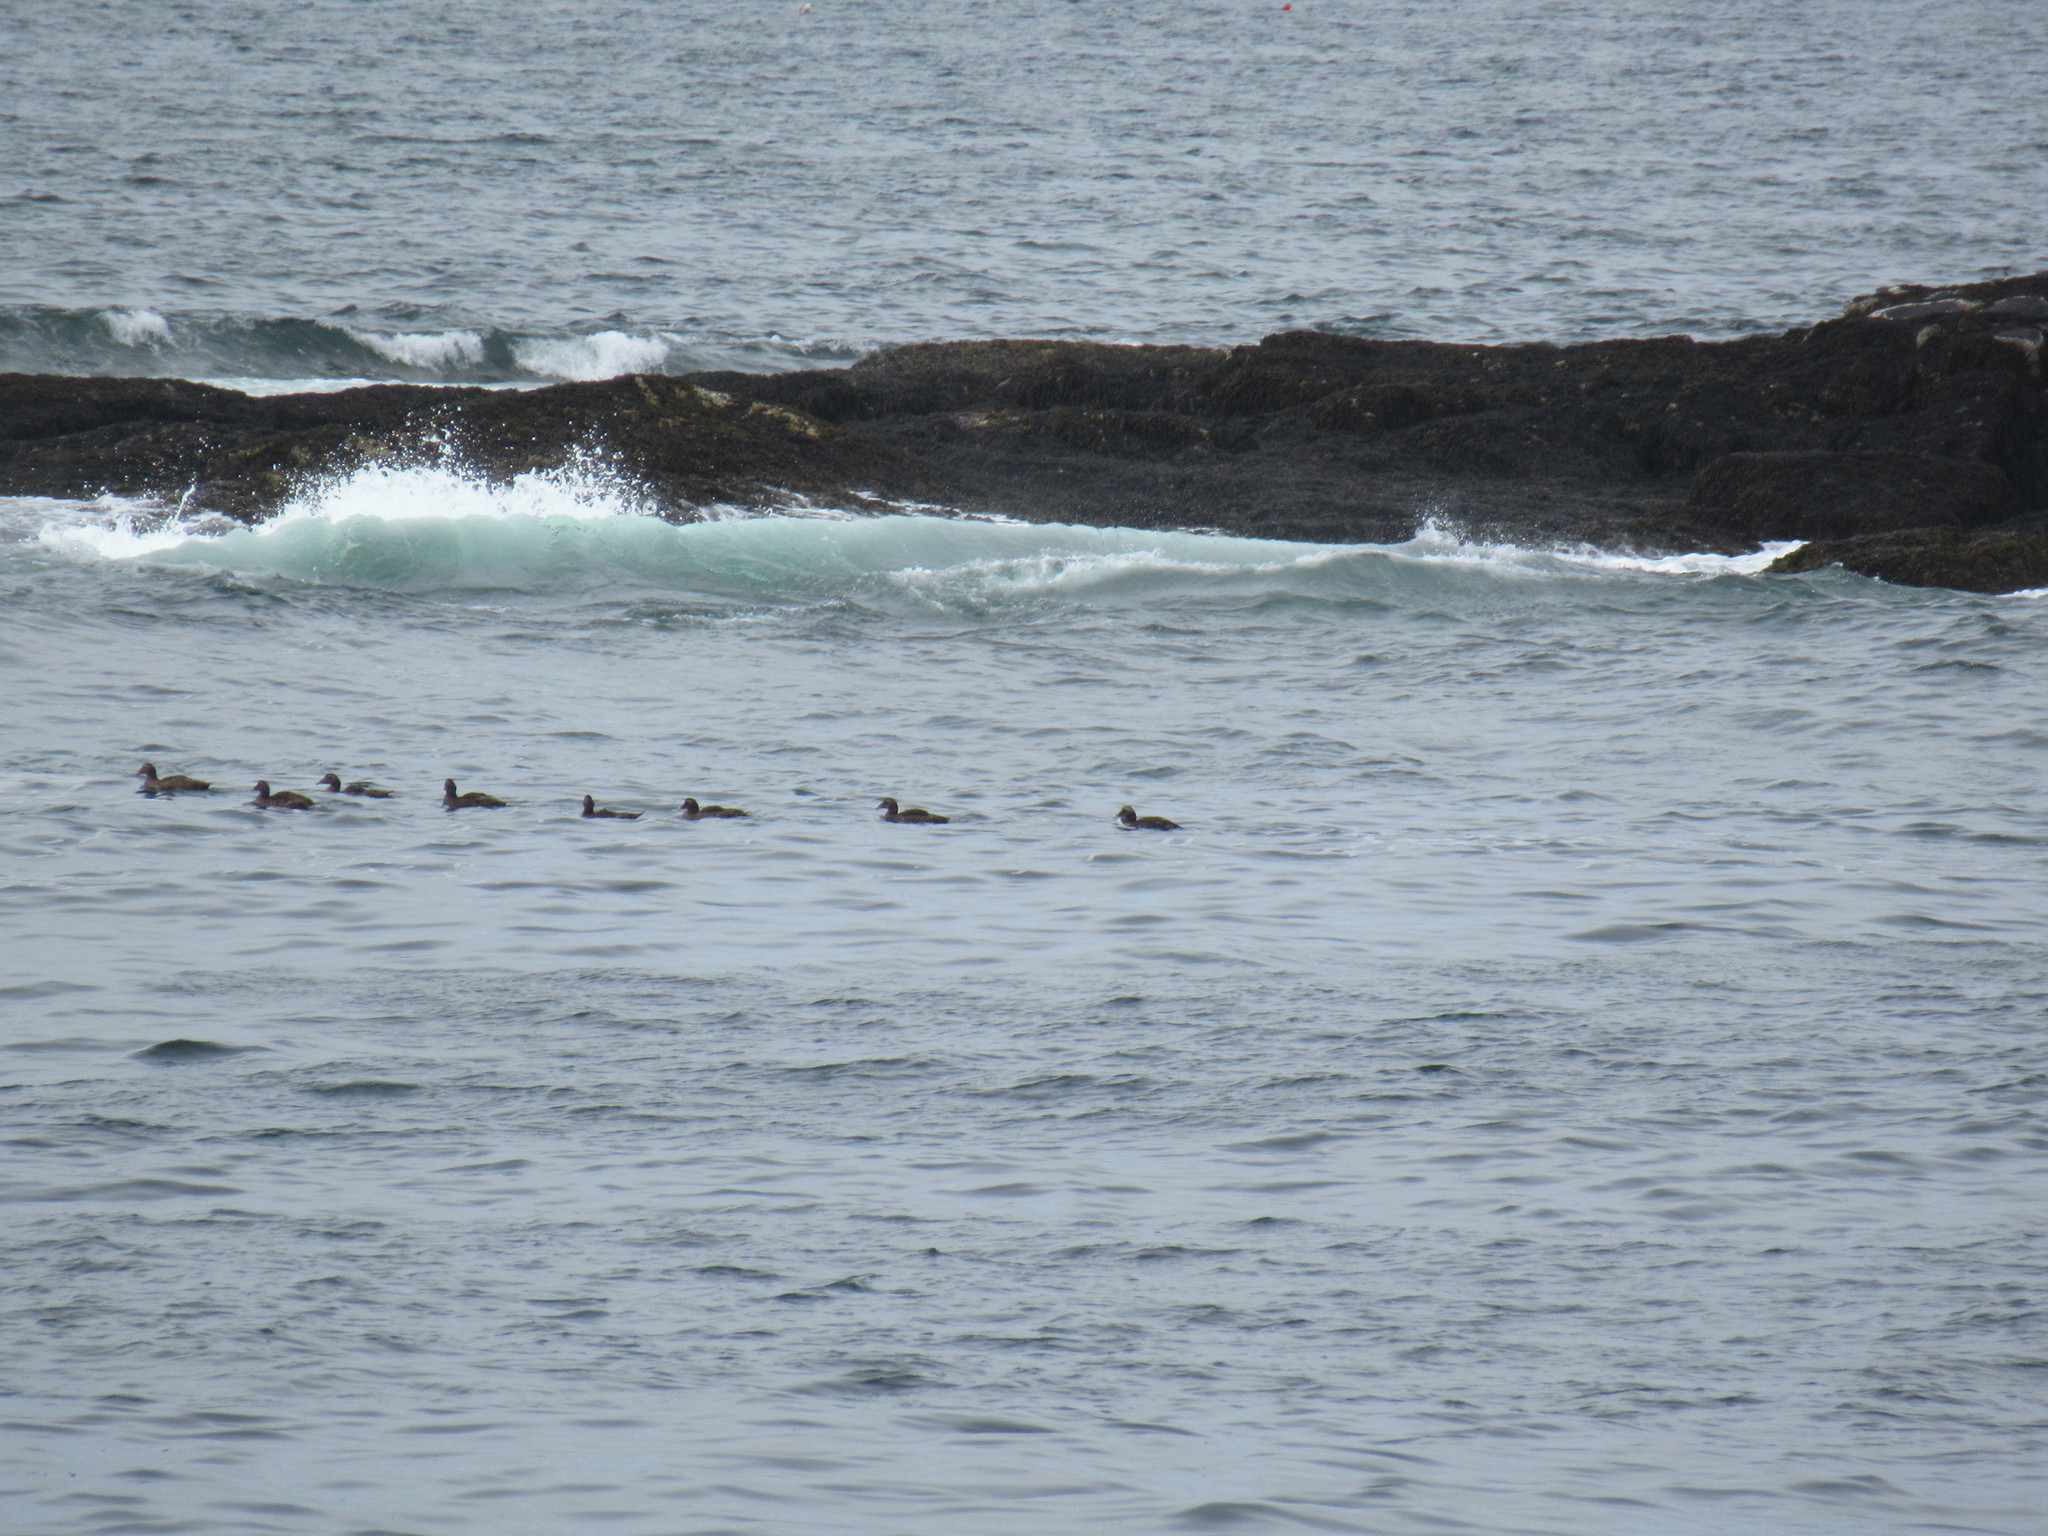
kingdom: Animalia
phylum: Chordata
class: Aves
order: Anseriformes
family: Anatidae
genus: Somateria
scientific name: Somateria mollissima
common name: Common eider
